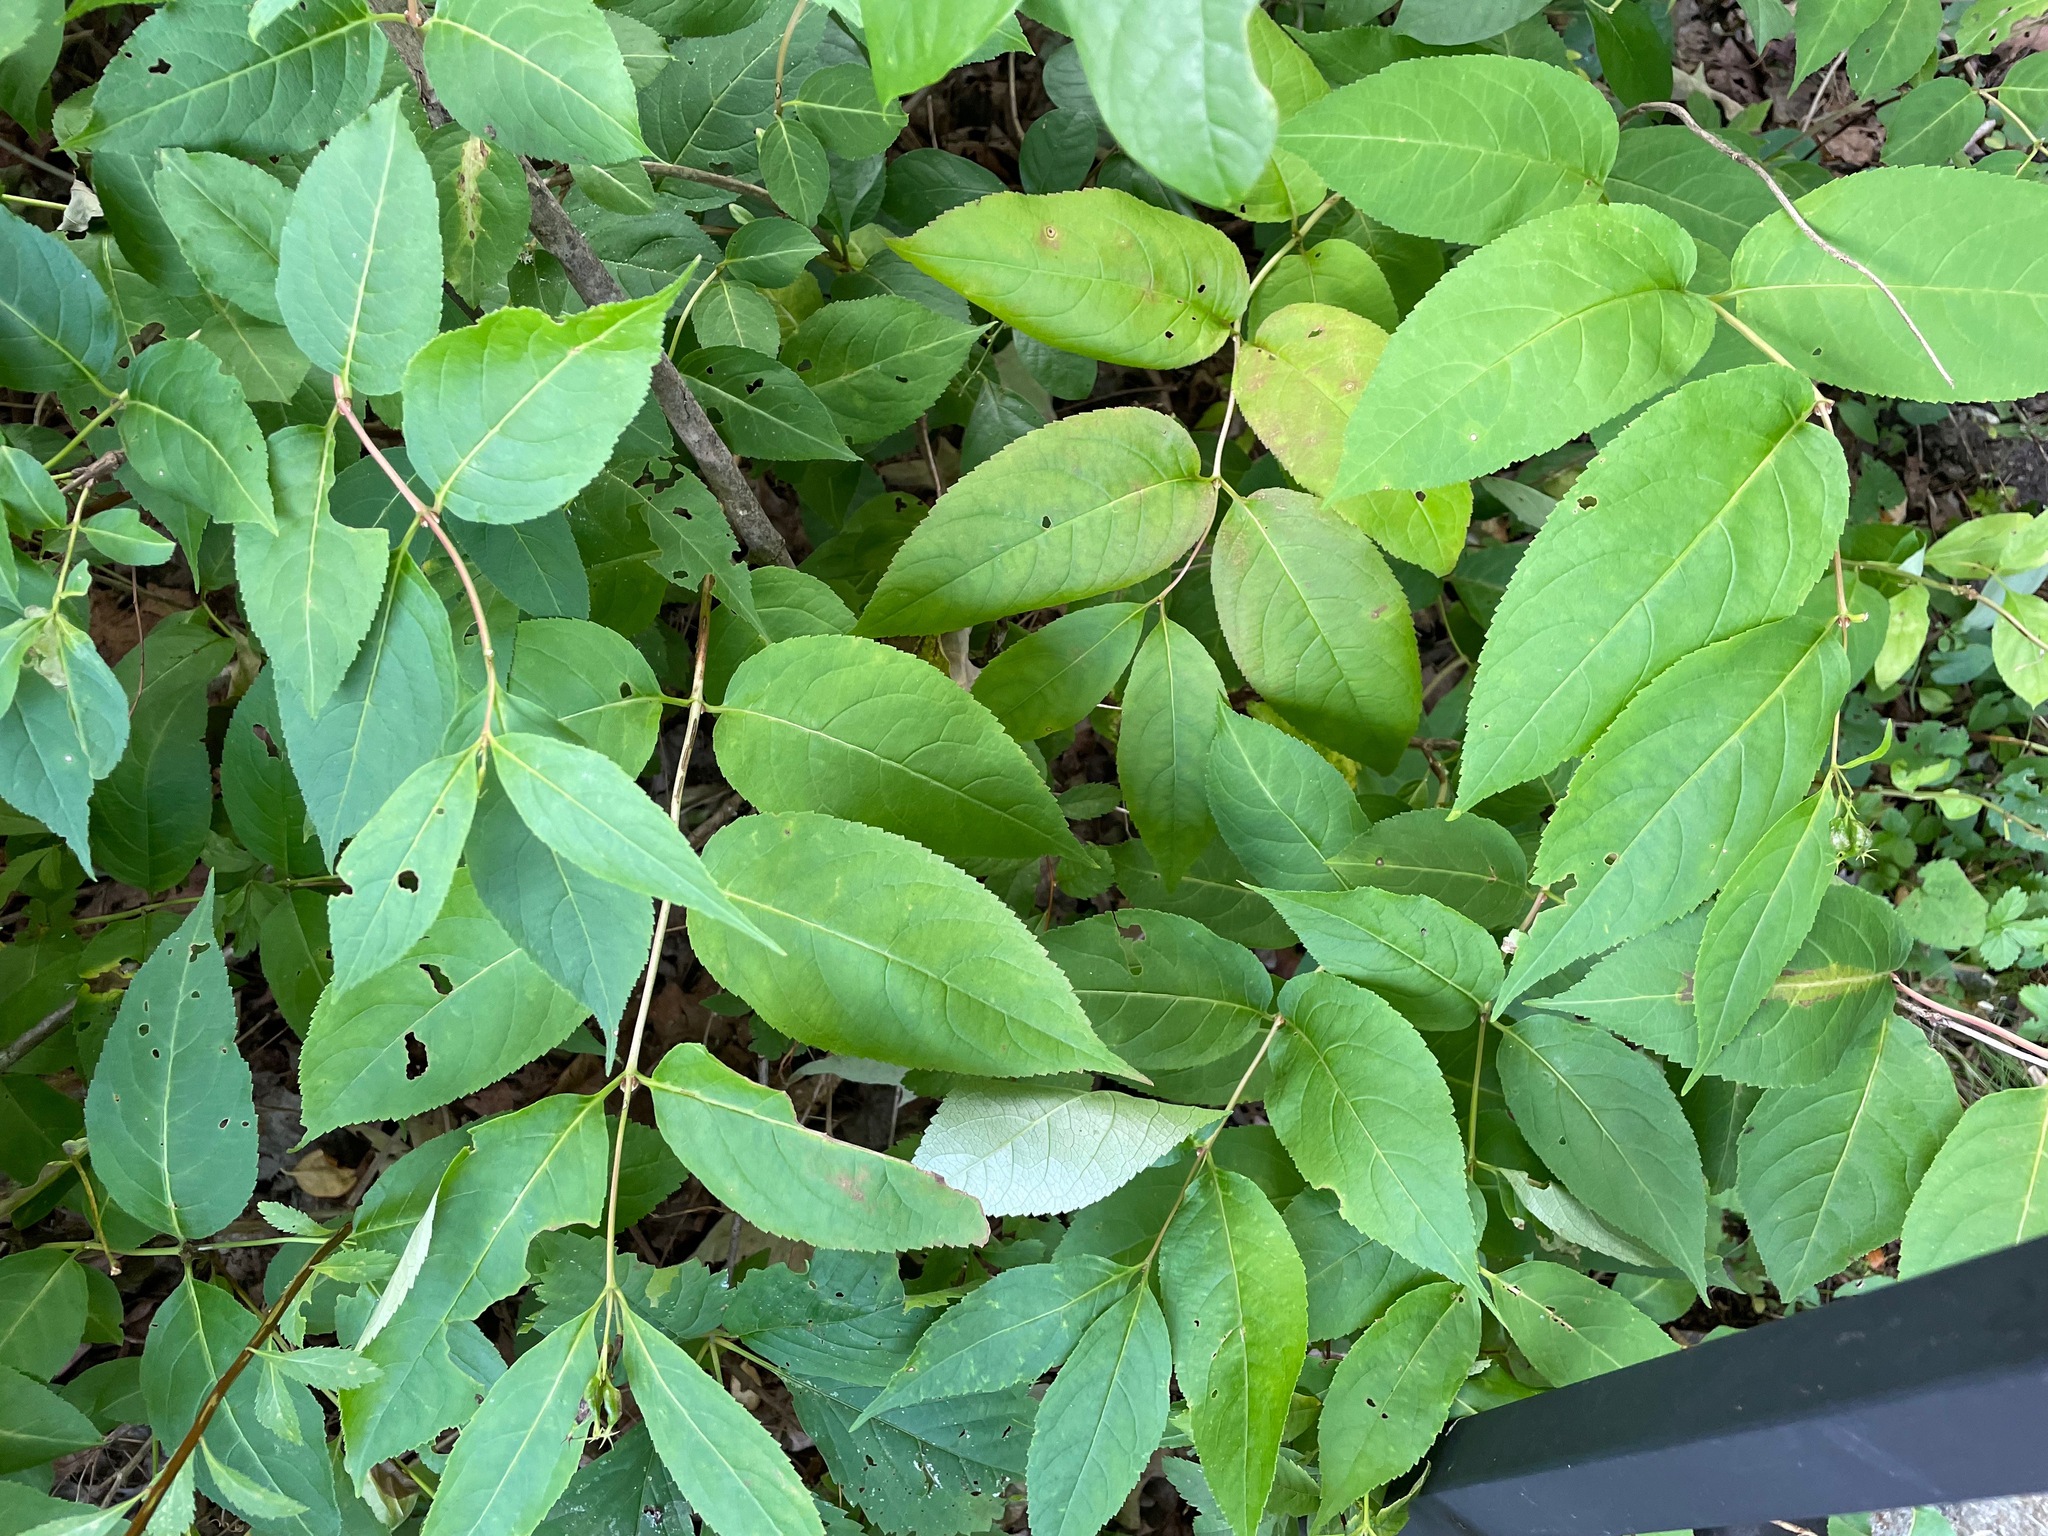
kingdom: Plantae
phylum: Tracheophyta
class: Magnoliopsida
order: Dipsacales
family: Caprifoliaceae
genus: Diervilla
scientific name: Diervilla lonicera
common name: Bush-honeysuckle
